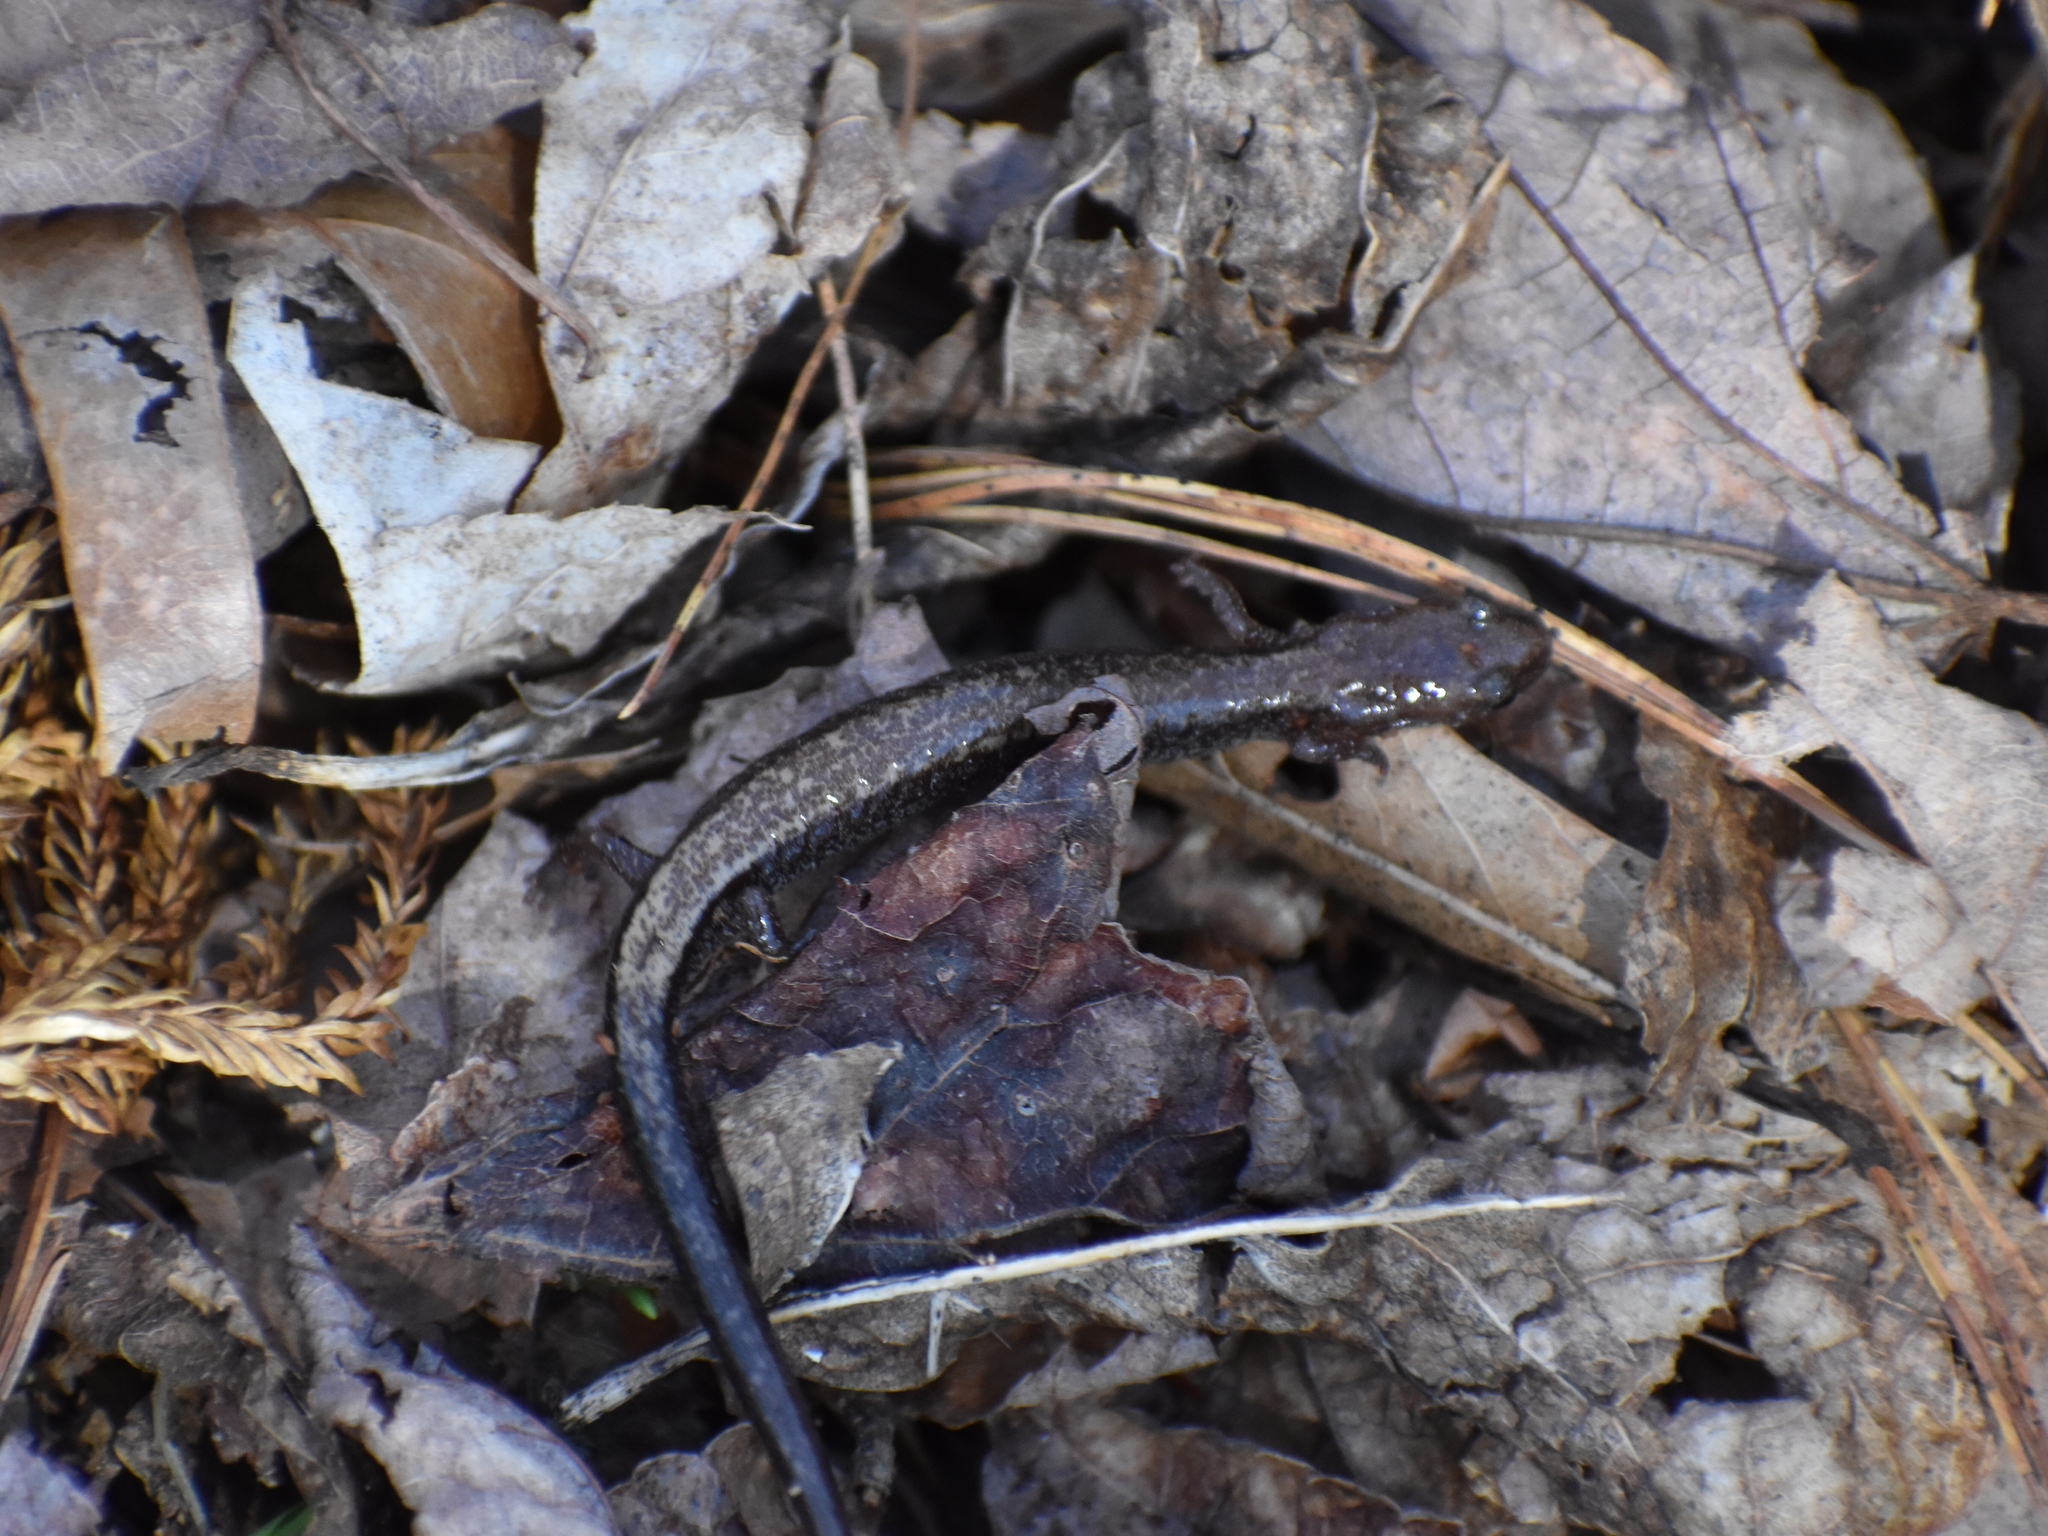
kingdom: Animalia
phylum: Chordata
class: Amphibia
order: Caudata
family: Plethodontidae
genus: Plethodon
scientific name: Plethodon cinereus
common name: Redback salamander
